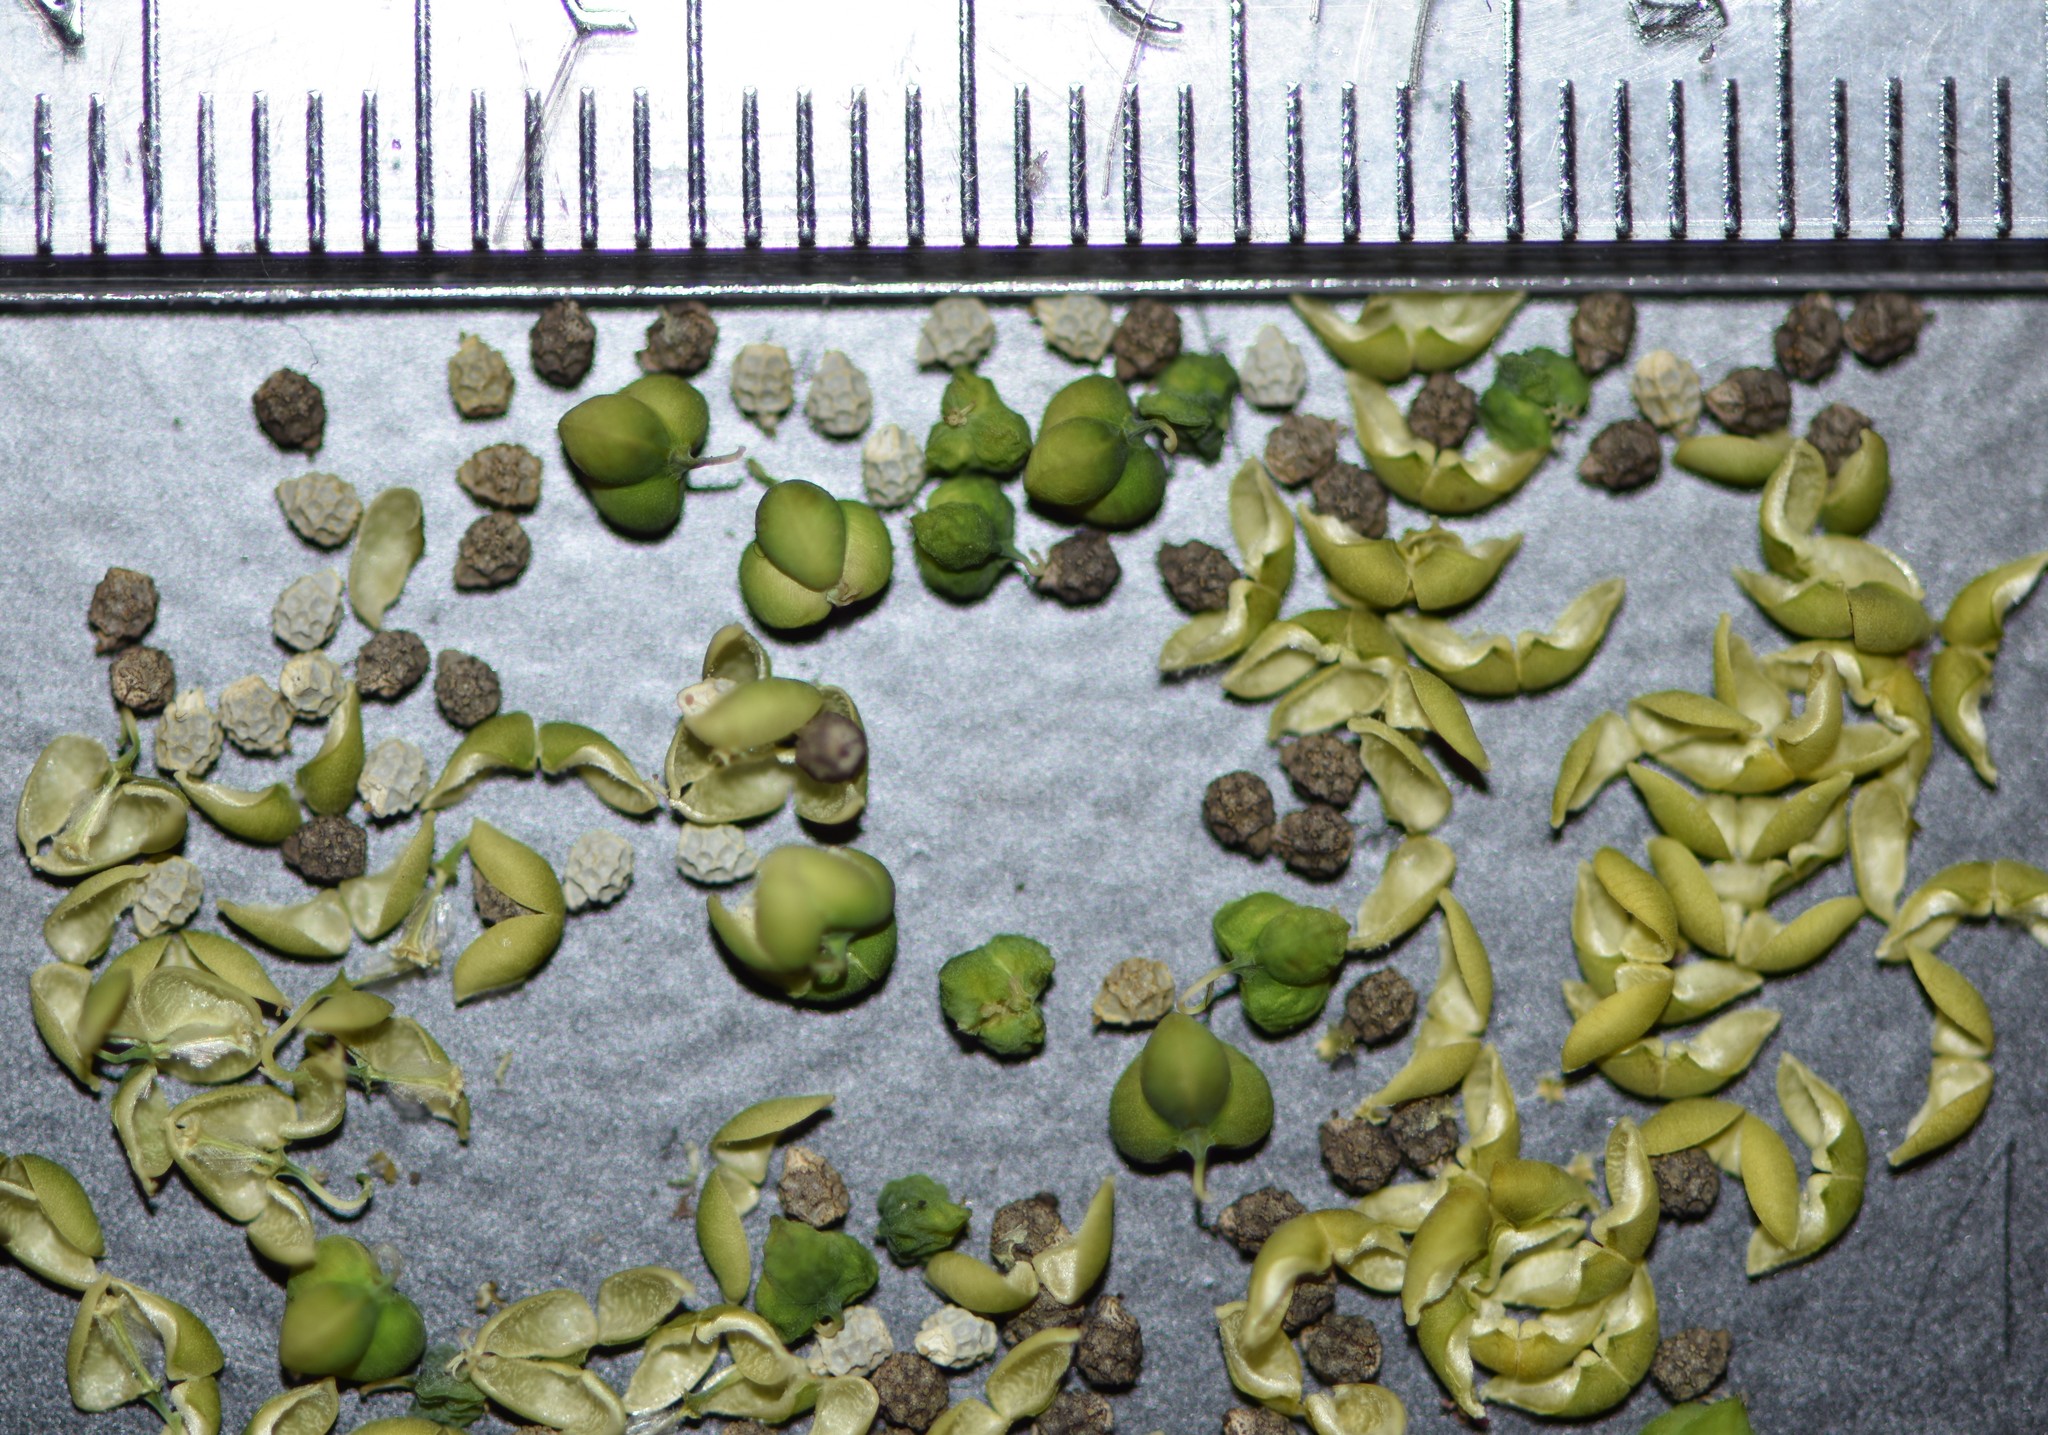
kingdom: Plantae
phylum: Tracheophyta
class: Magnoliopsida
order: Malpighiales
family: Euphorbiaceae
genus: Euphorbia
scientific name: Euphorbia graminea
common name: Grassleaf spurge
